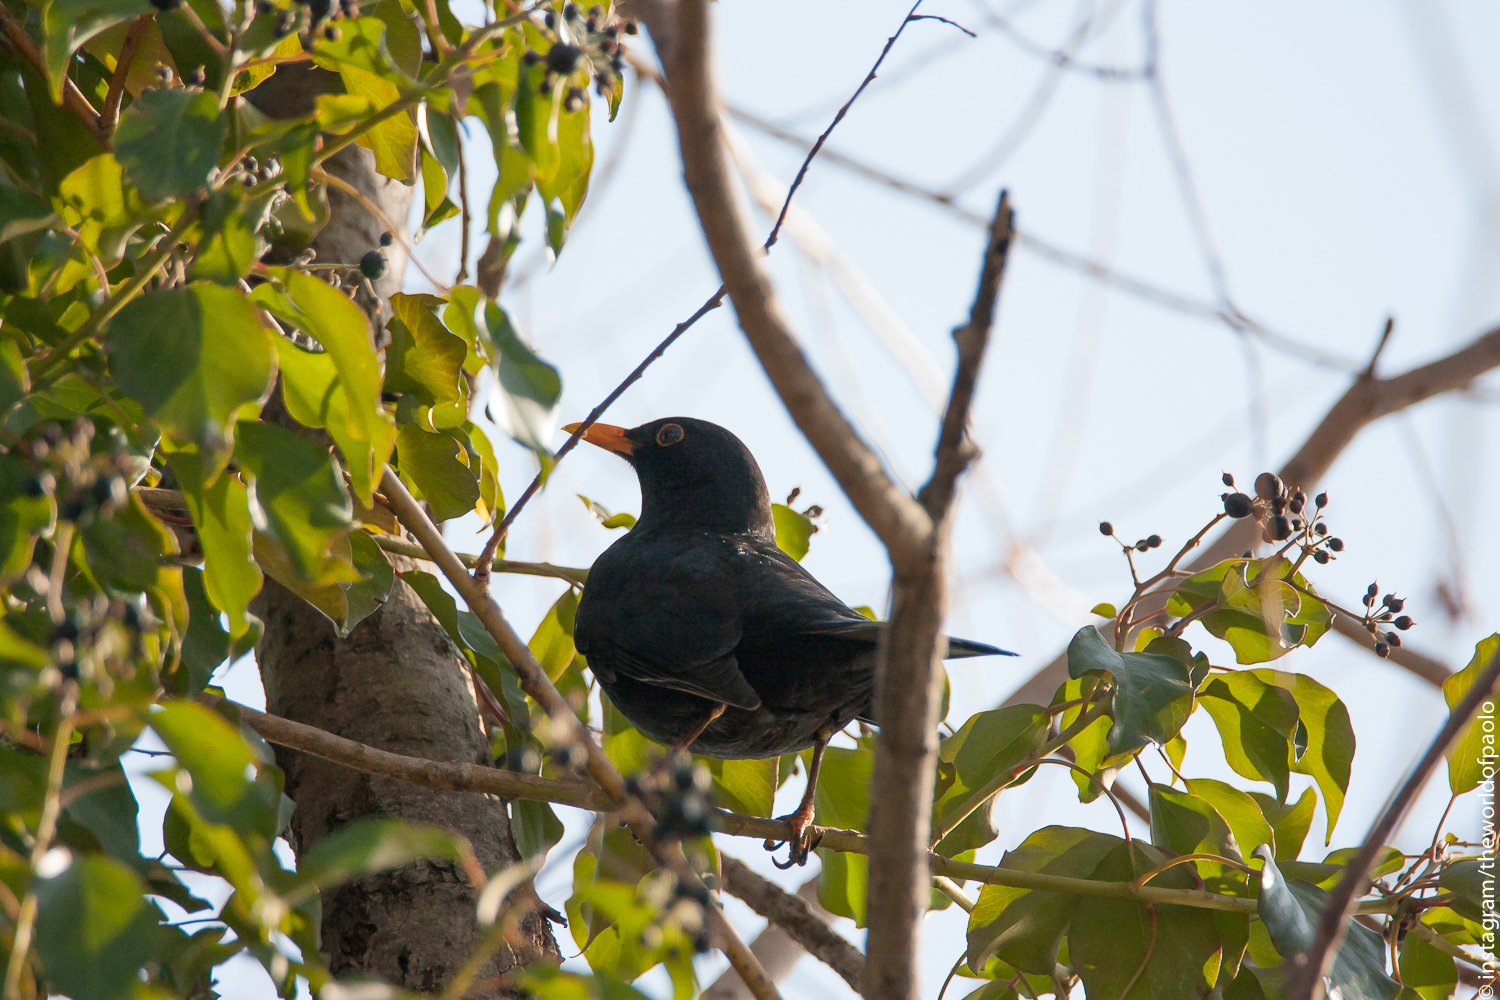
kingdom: Animalia
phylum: Chordata
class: Aves
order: Passeriformes
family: Turdidae
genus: Turdus
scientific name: Turdus merula
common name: Common blackbird
